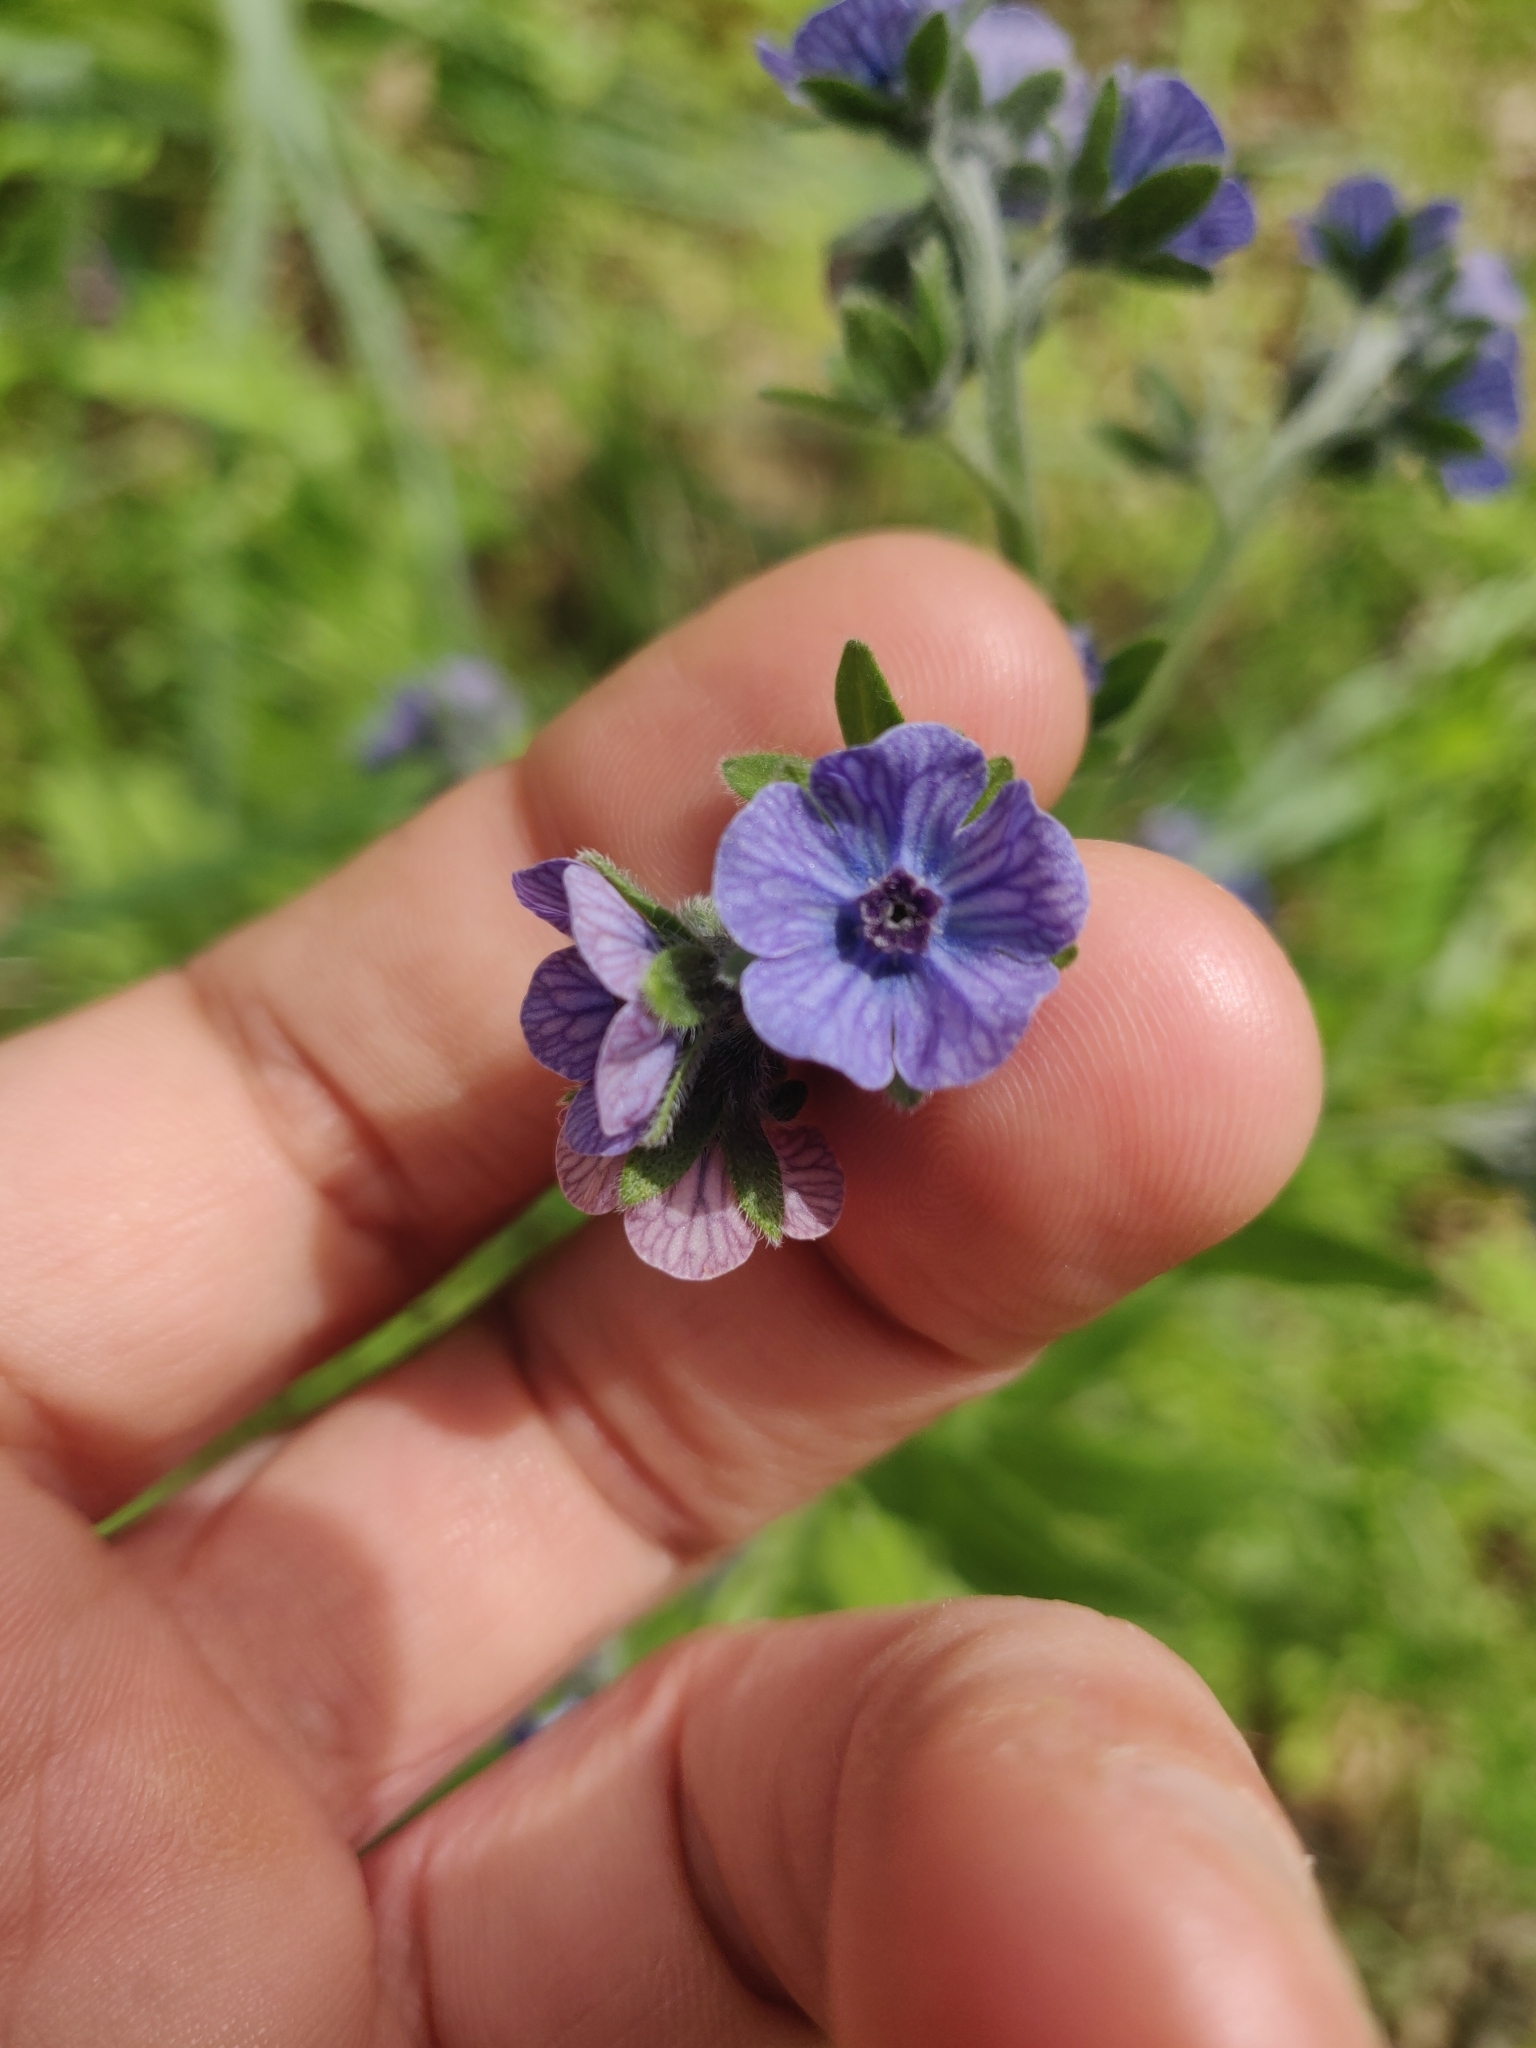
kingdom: Plantae
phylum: Tracheophyta
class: Magnoliopsida
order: Boraginales
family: Boraginaceae
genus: Cynoglossum
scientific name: Cynoglossum creticum
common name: Blue hound's tongue
